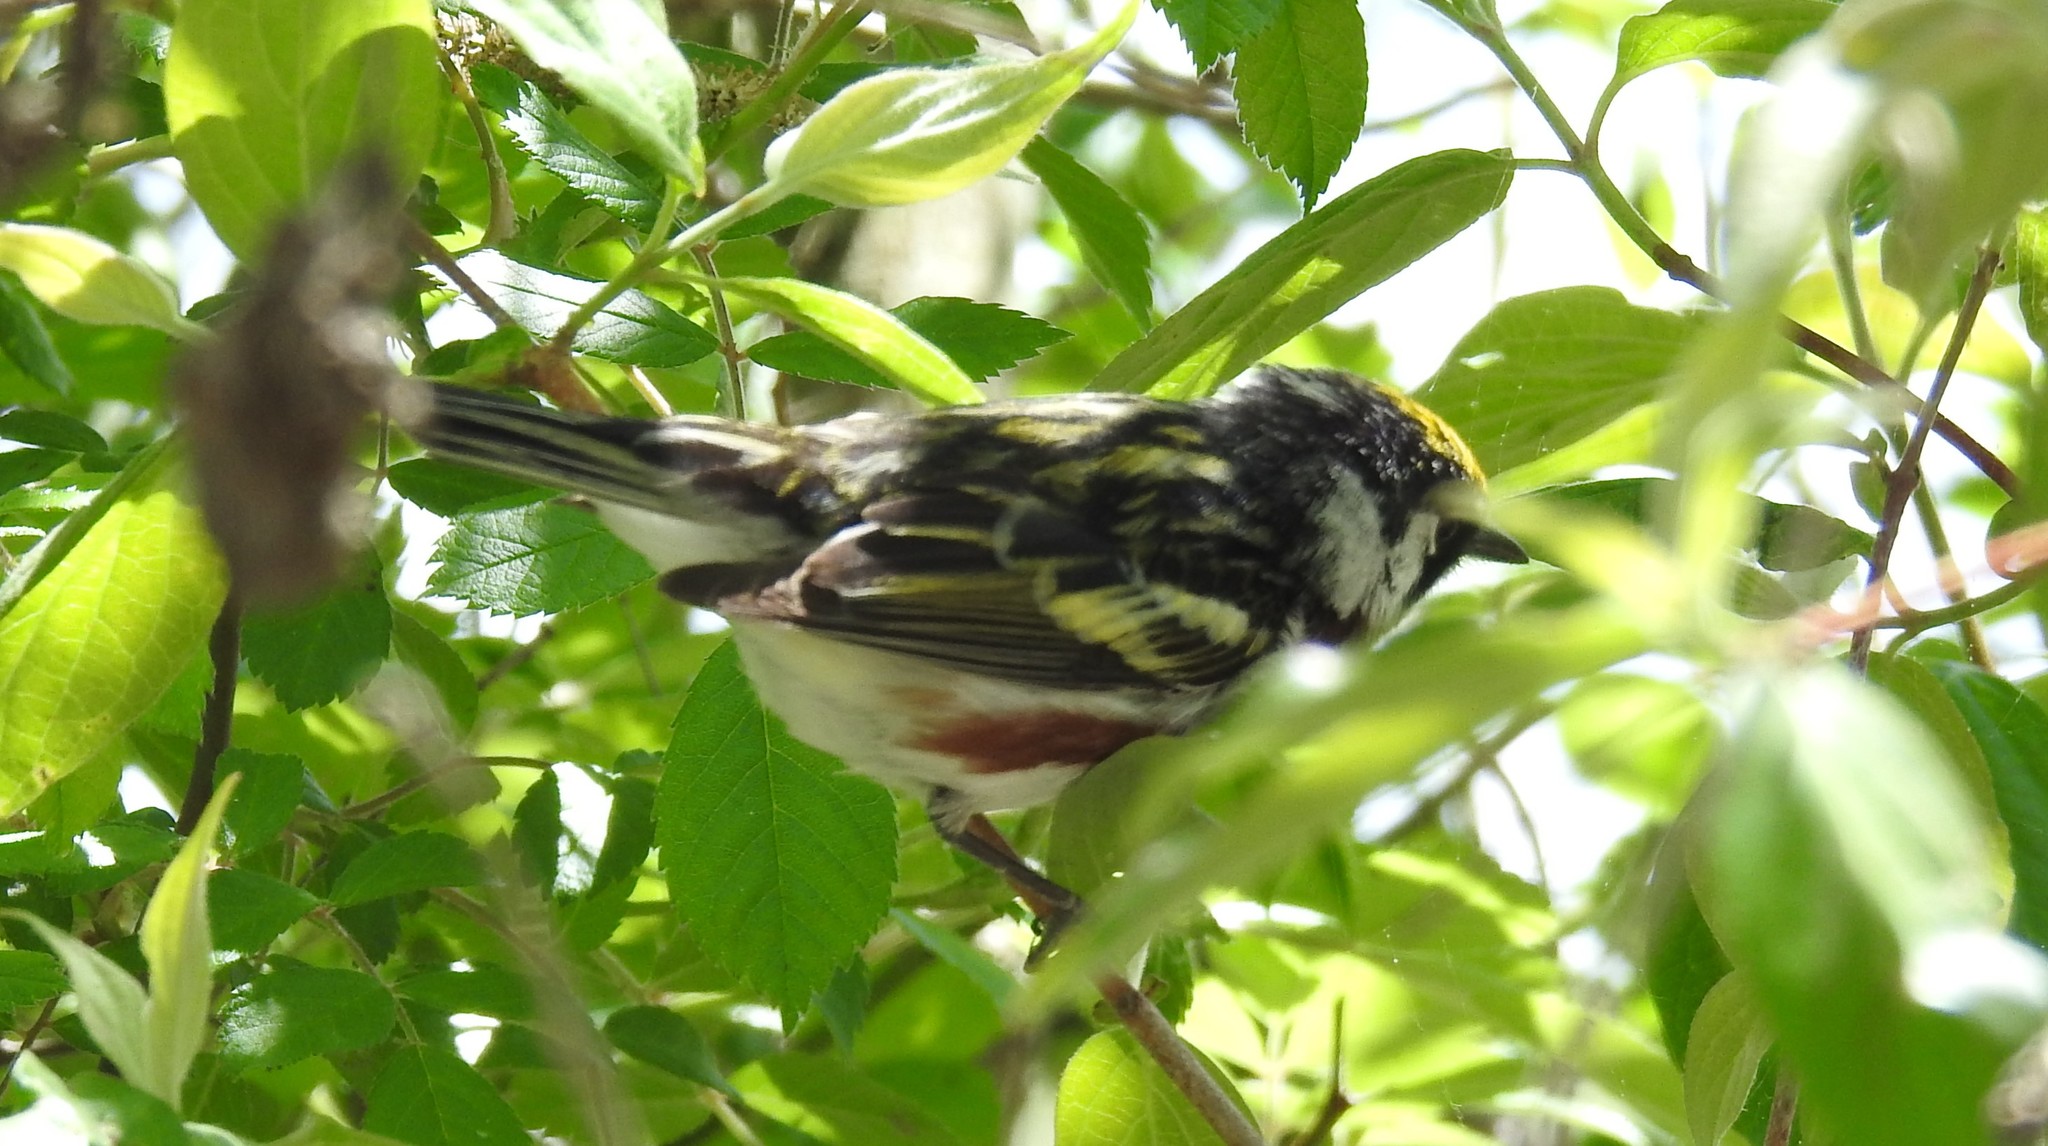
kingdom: Animalia
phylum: Chordata
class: Aves
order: Passeriformes
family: Parulidae
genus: Setophaga
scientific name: Setophaga pensylvanica
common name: Chestnut-sided warbler
